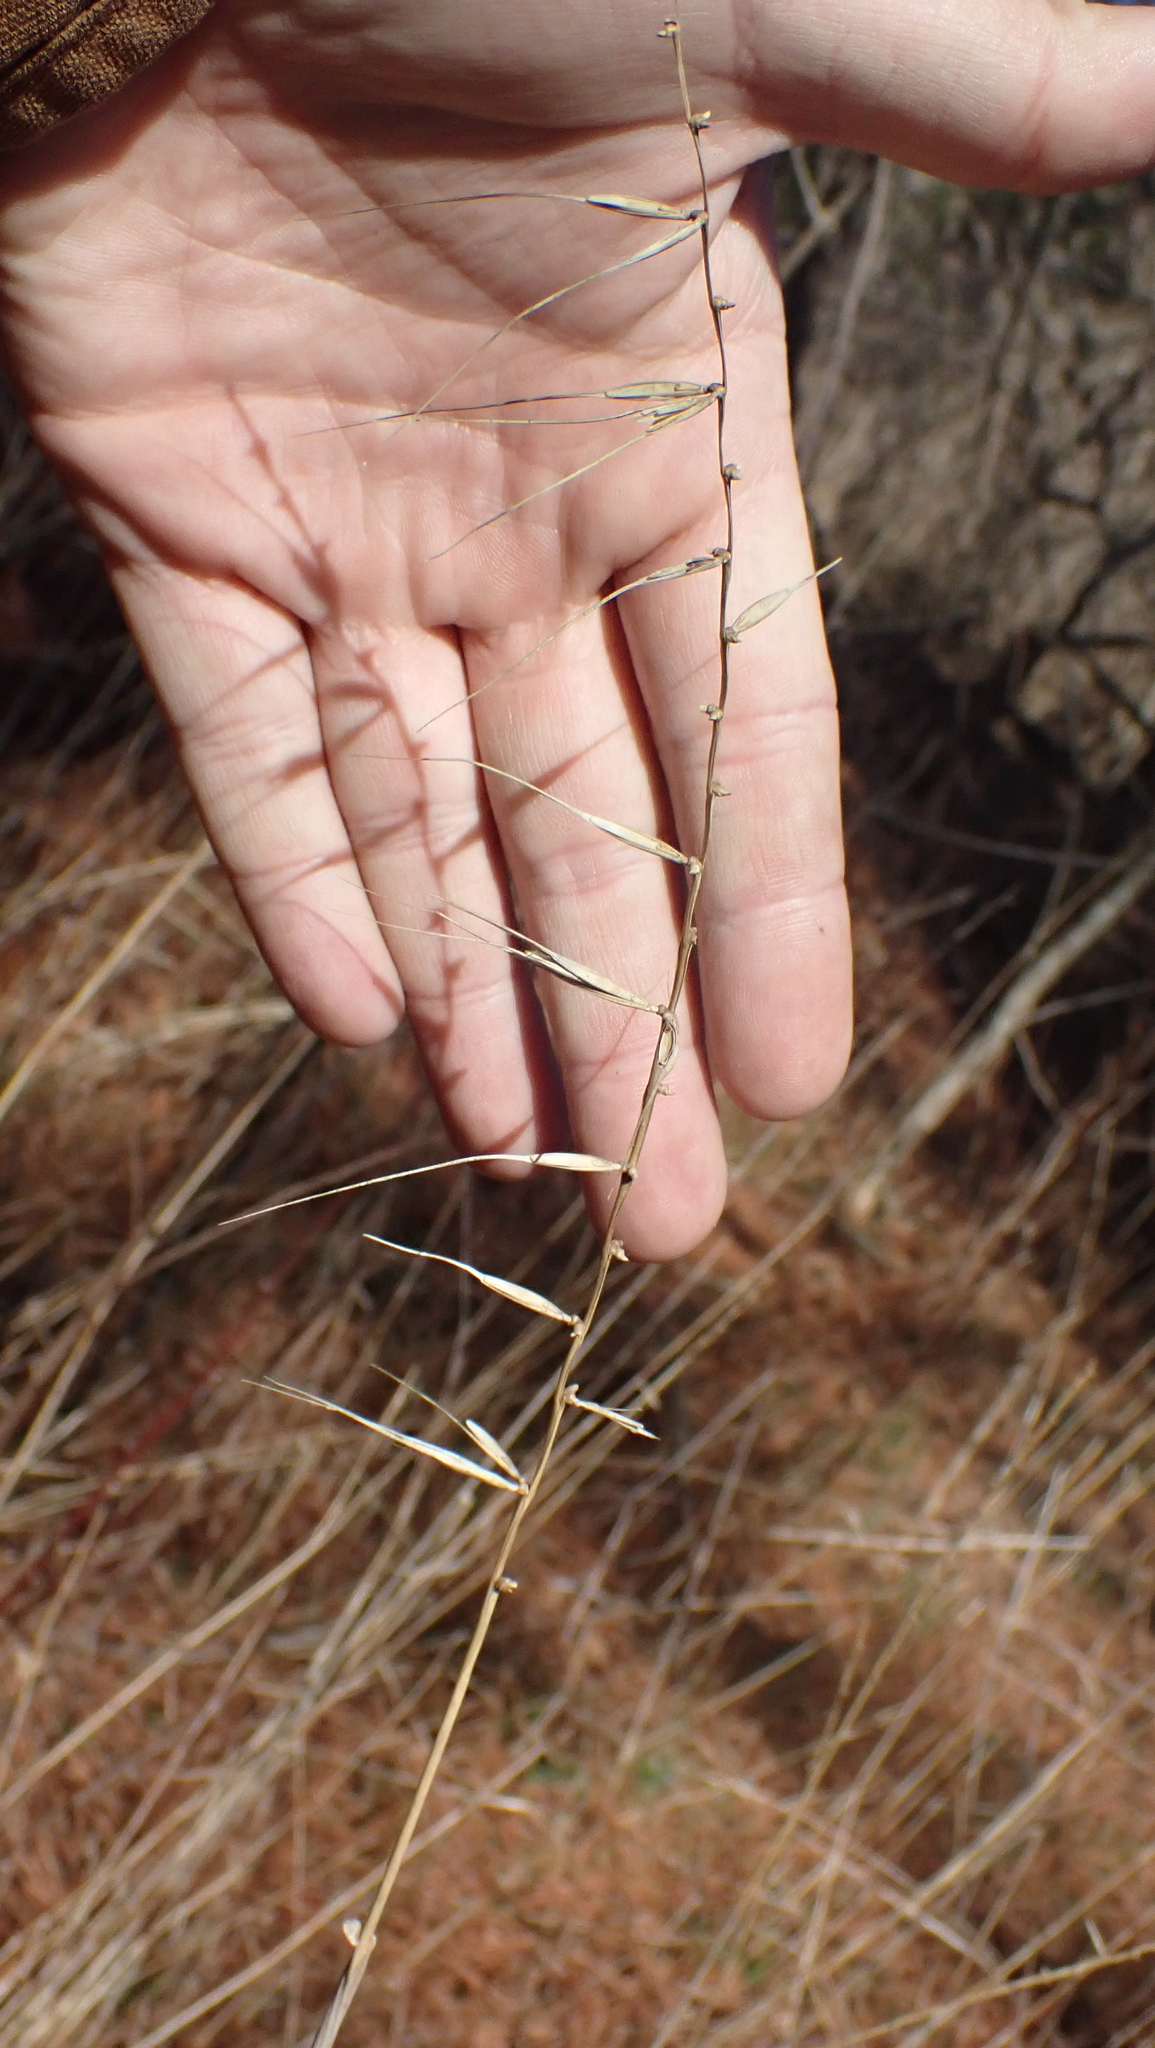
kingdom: Plantae
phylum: Tracheophyta
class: Liliopsida
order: Poales
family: Poaceae
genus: Elymus
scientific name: Elymus hystrix
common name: Bottlebrush grass
